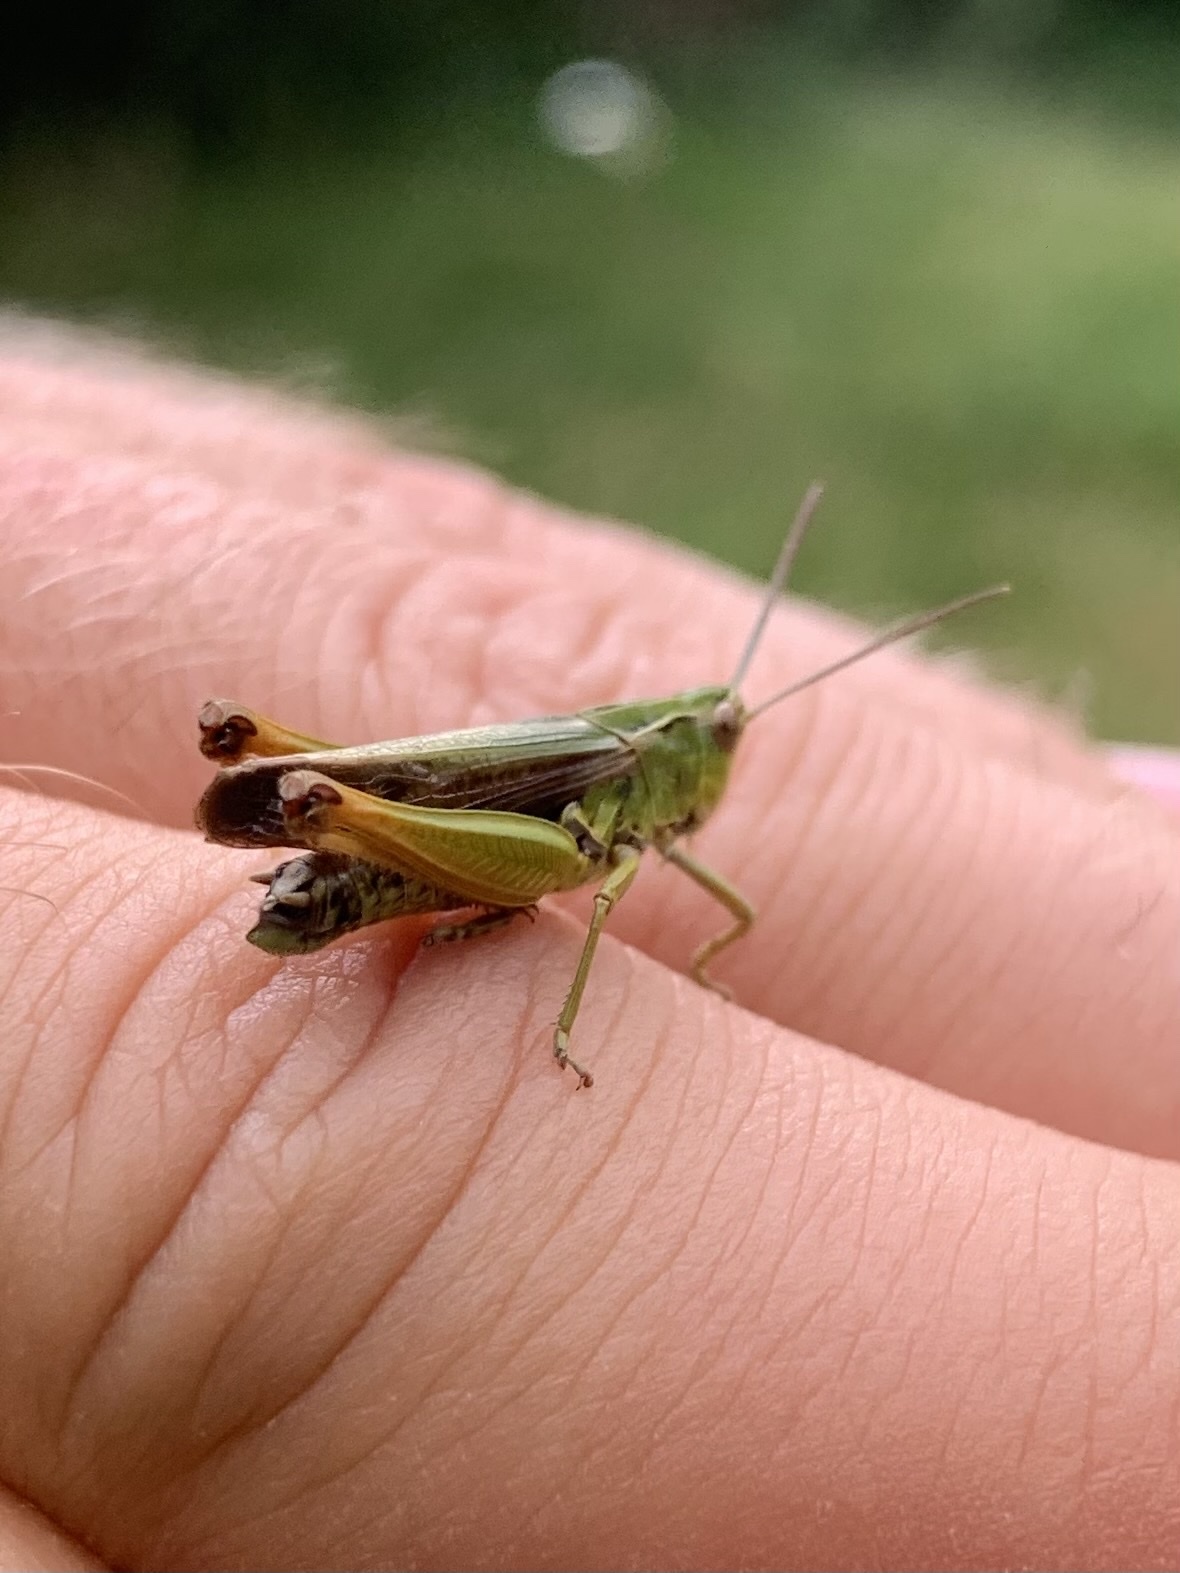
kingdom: Animalia
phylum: Arthropoda
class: Insecta
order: Orthoptera
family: Acrididae
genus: Omocestus
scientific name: Omocestus viridulus
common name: Common green grasshopper
